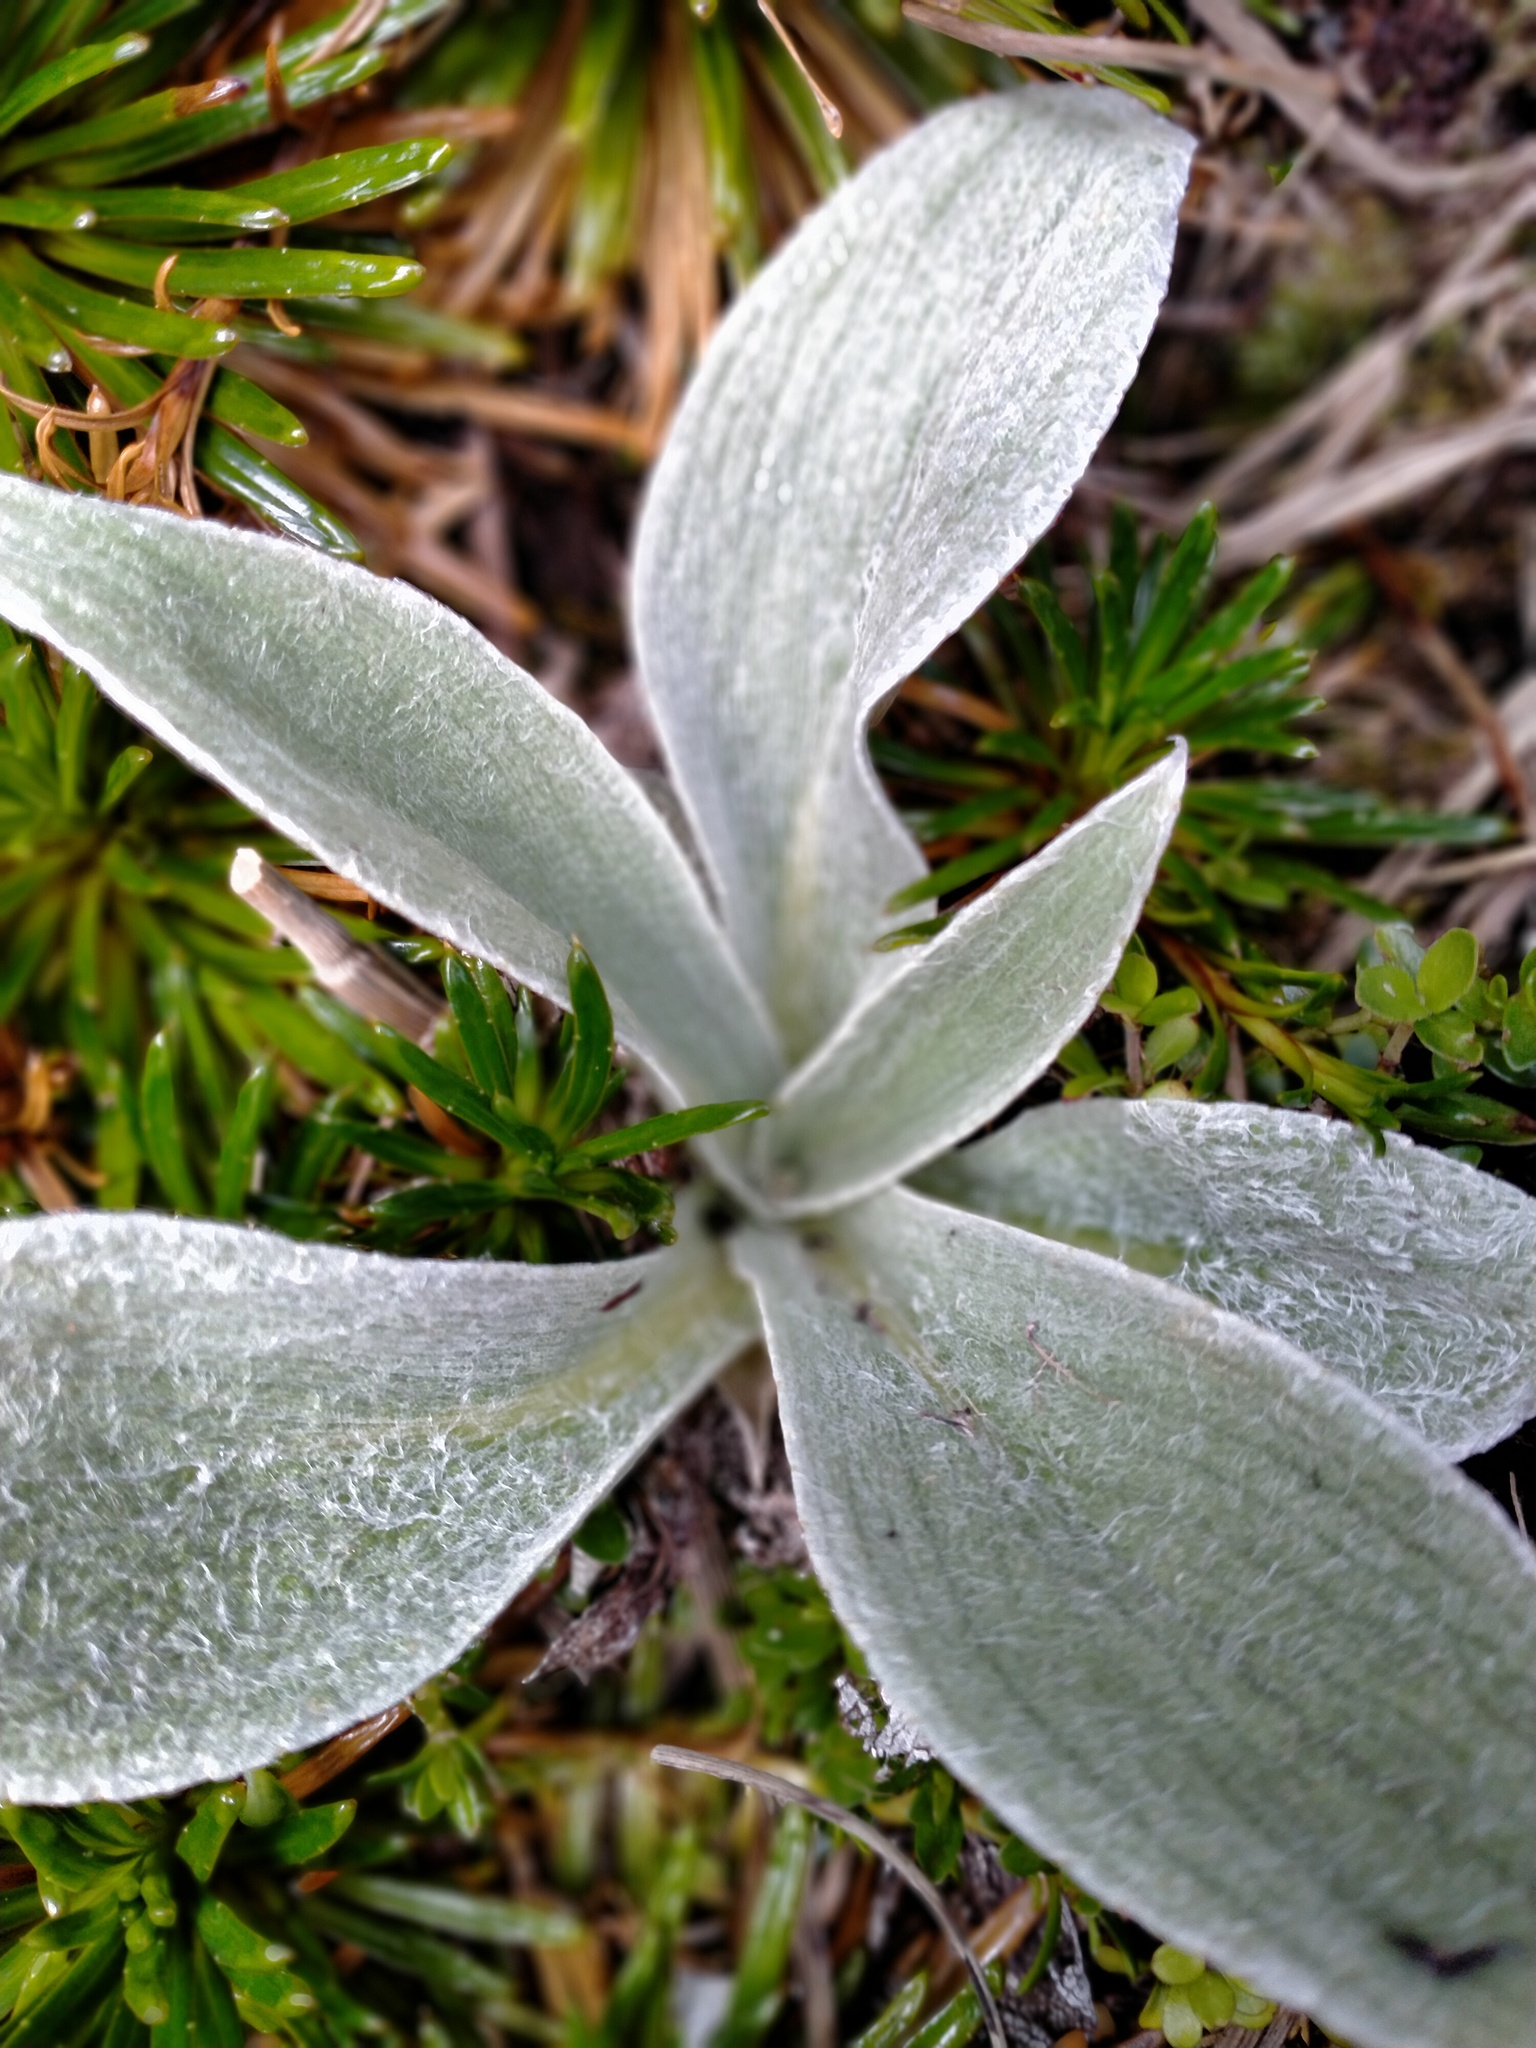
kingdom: Plantae
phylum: Tracheophyta
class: Magnoliopsida
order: Asterales
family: Asteraceae
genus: Pleurophyllum
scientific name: Pleurophyllum hookeri
